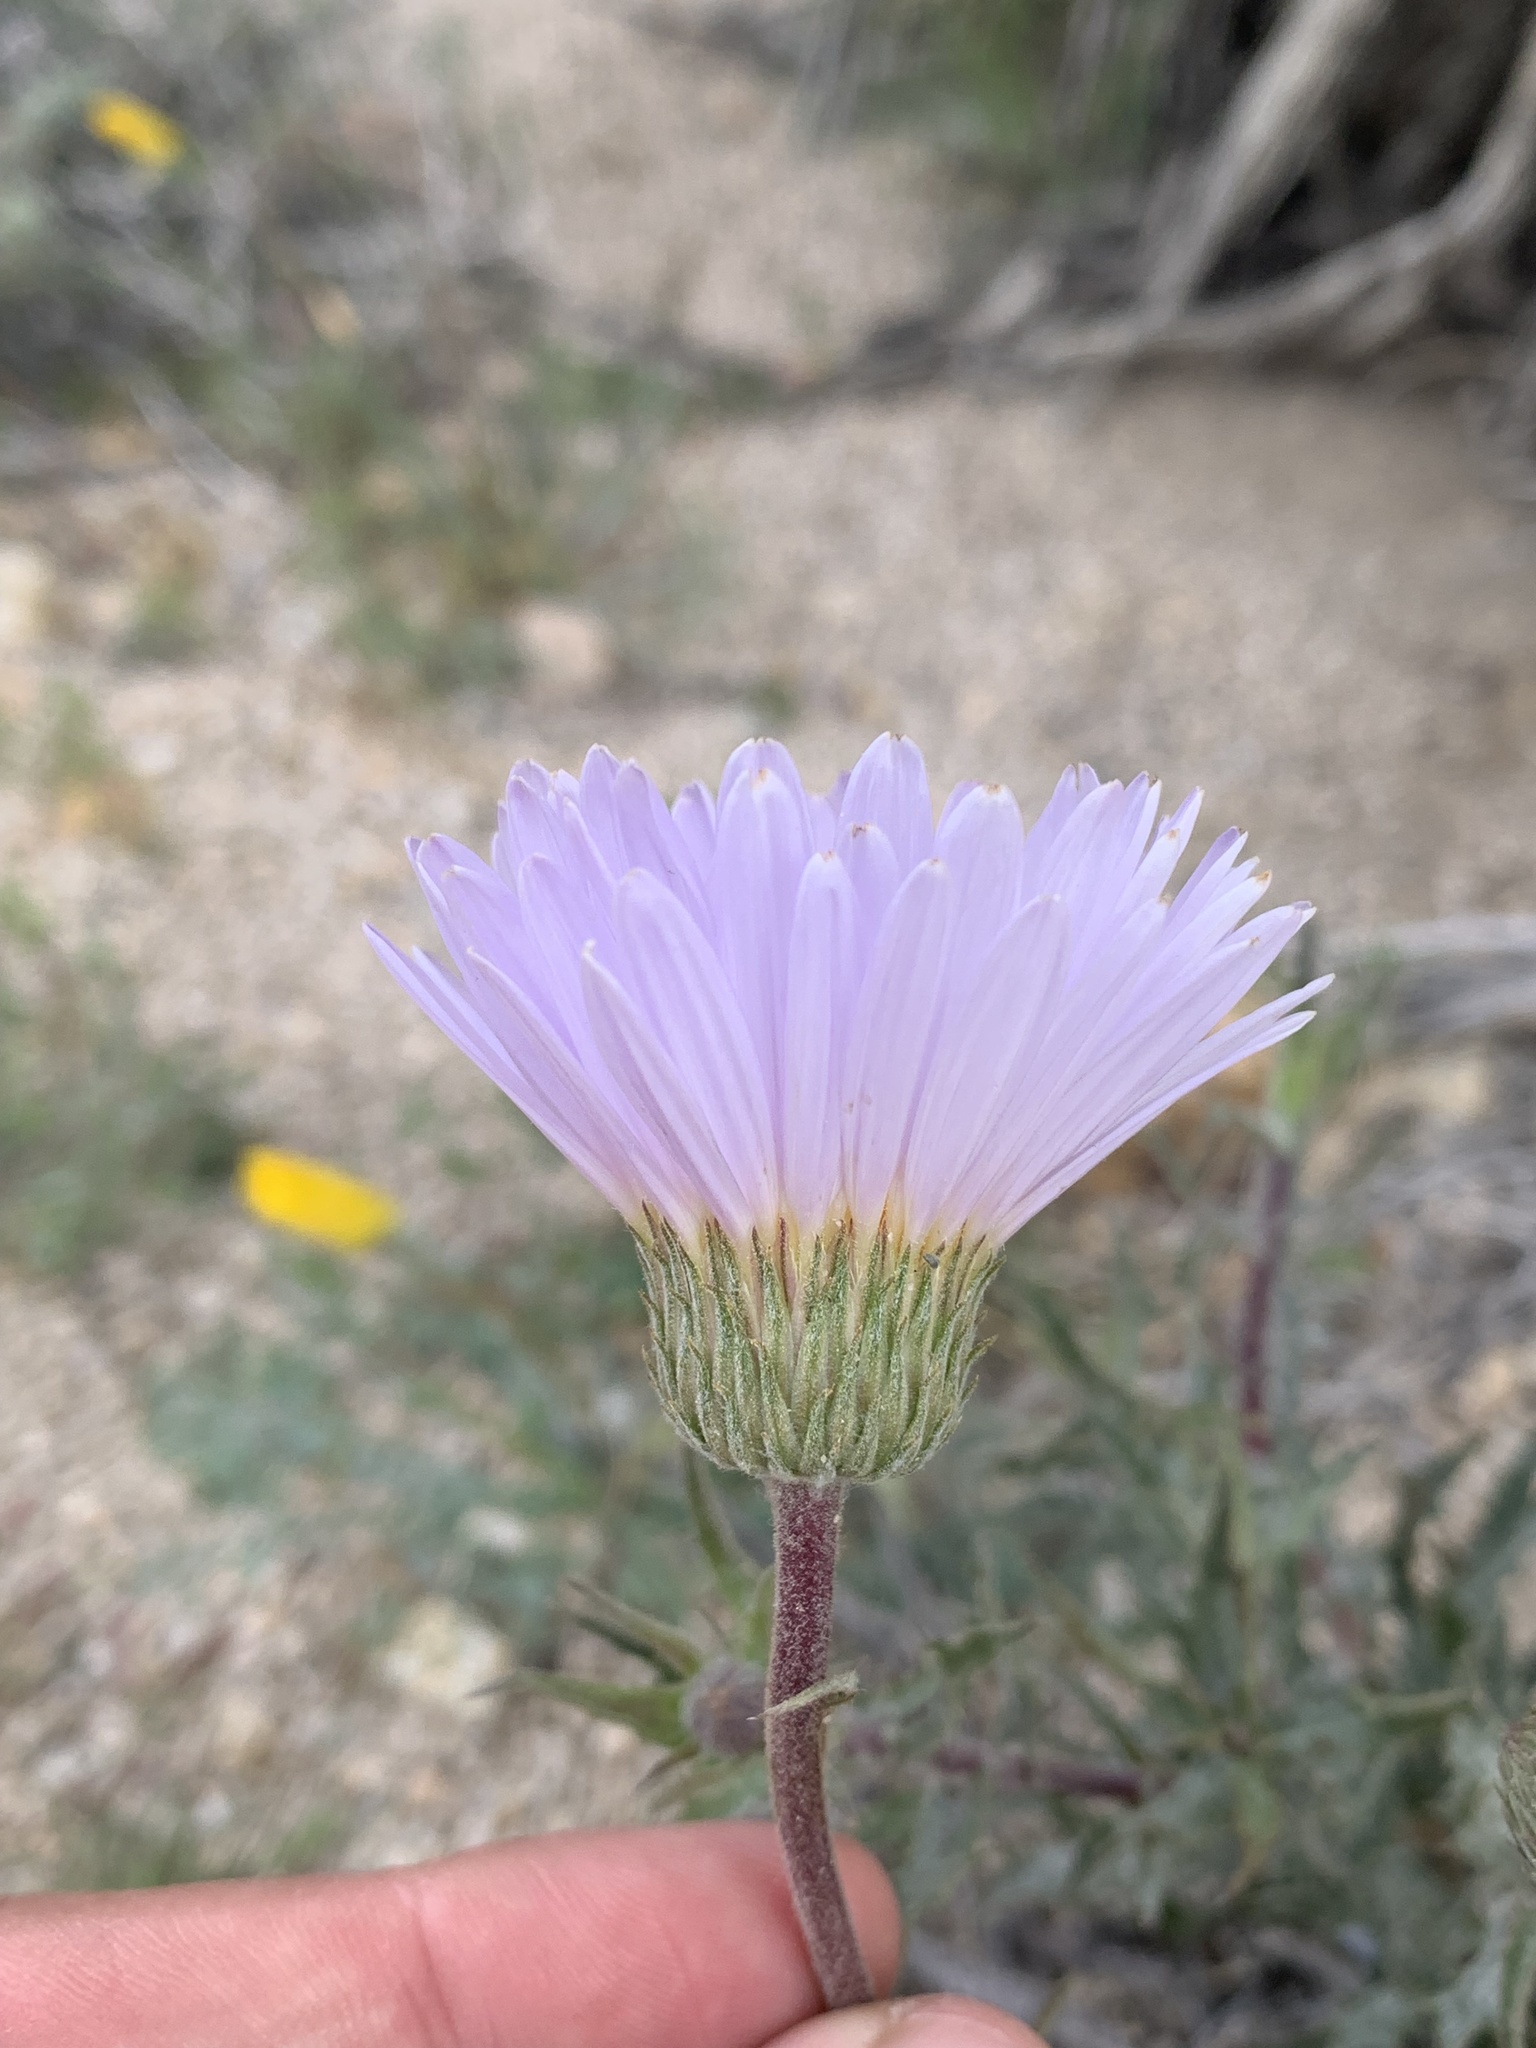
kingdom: Plantae
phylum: Tracheophyta
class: Magnoliopsida
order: Asterales
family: Asteraceae
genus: Xylorhiza
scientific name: Xylorhiza tortifolia
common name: Hurt-leaf woody-aster
